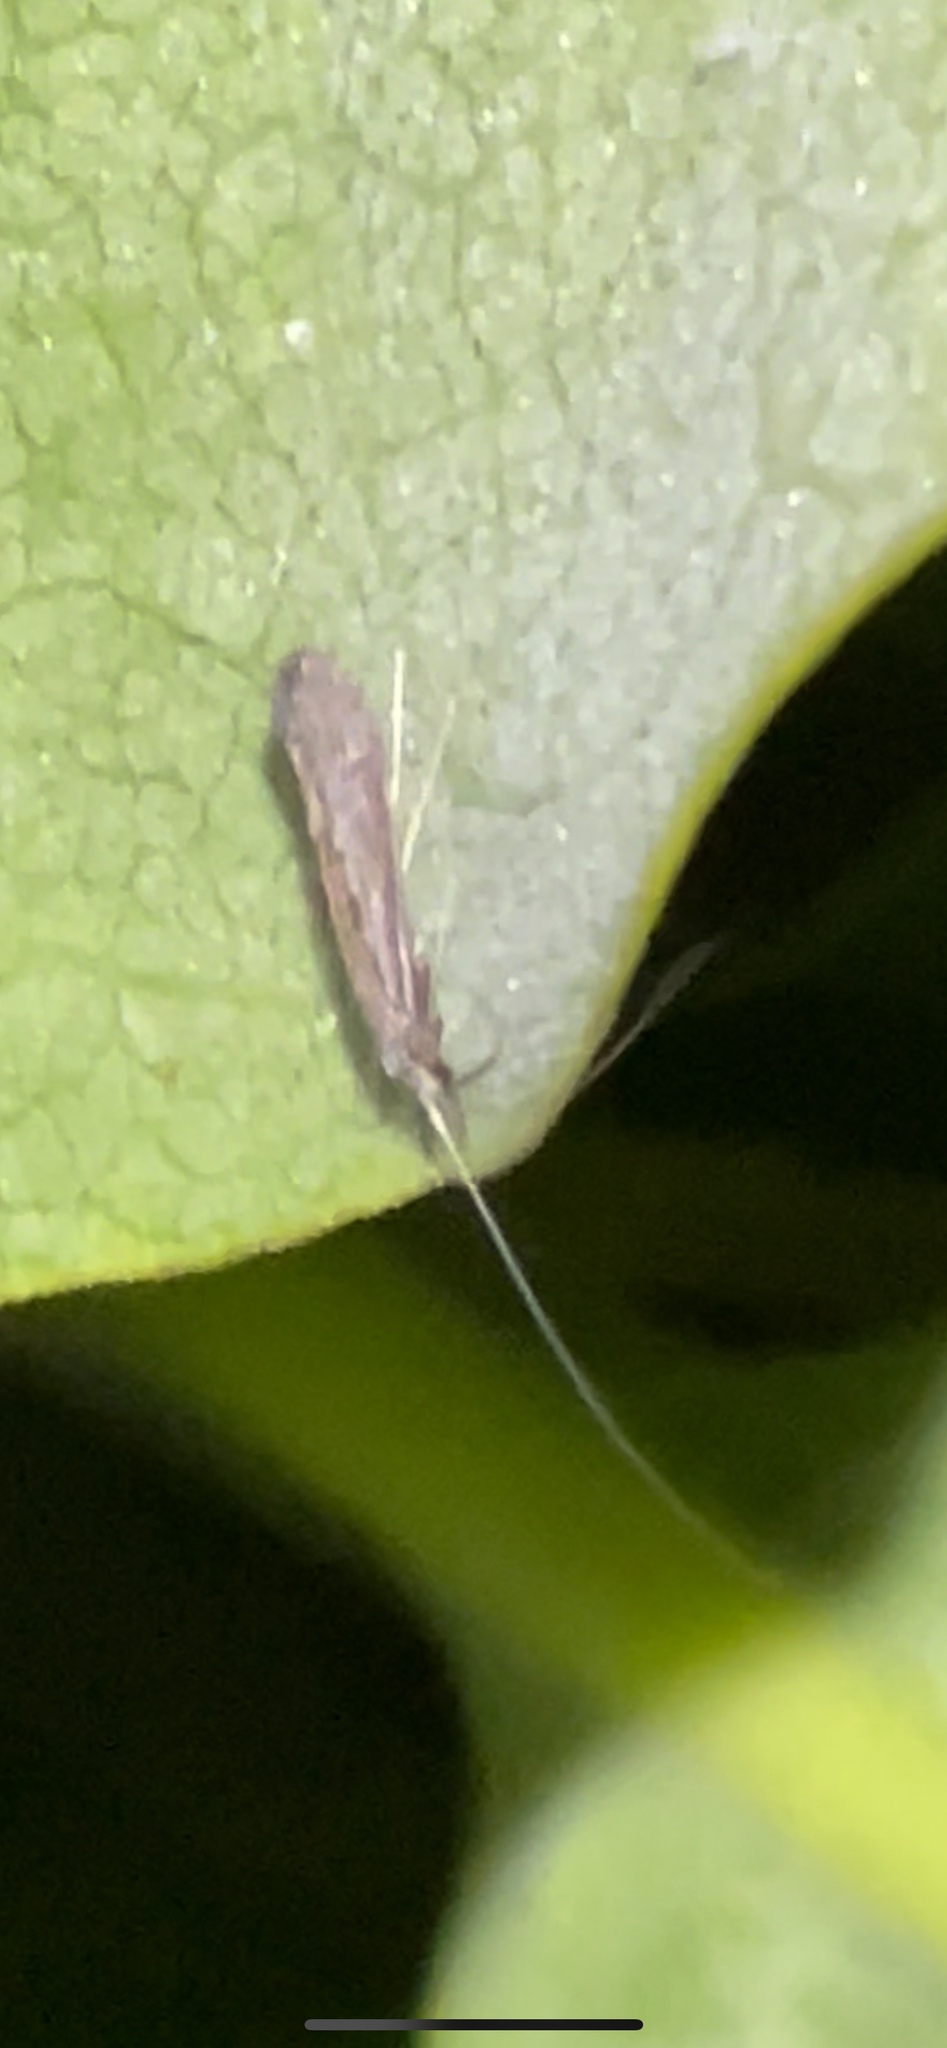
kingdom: Animalia
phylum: Arthropoda
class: Insecta
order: Trichoptera
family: Leptoceridae
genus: Leptocerus
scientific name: Leptocerus americanus
